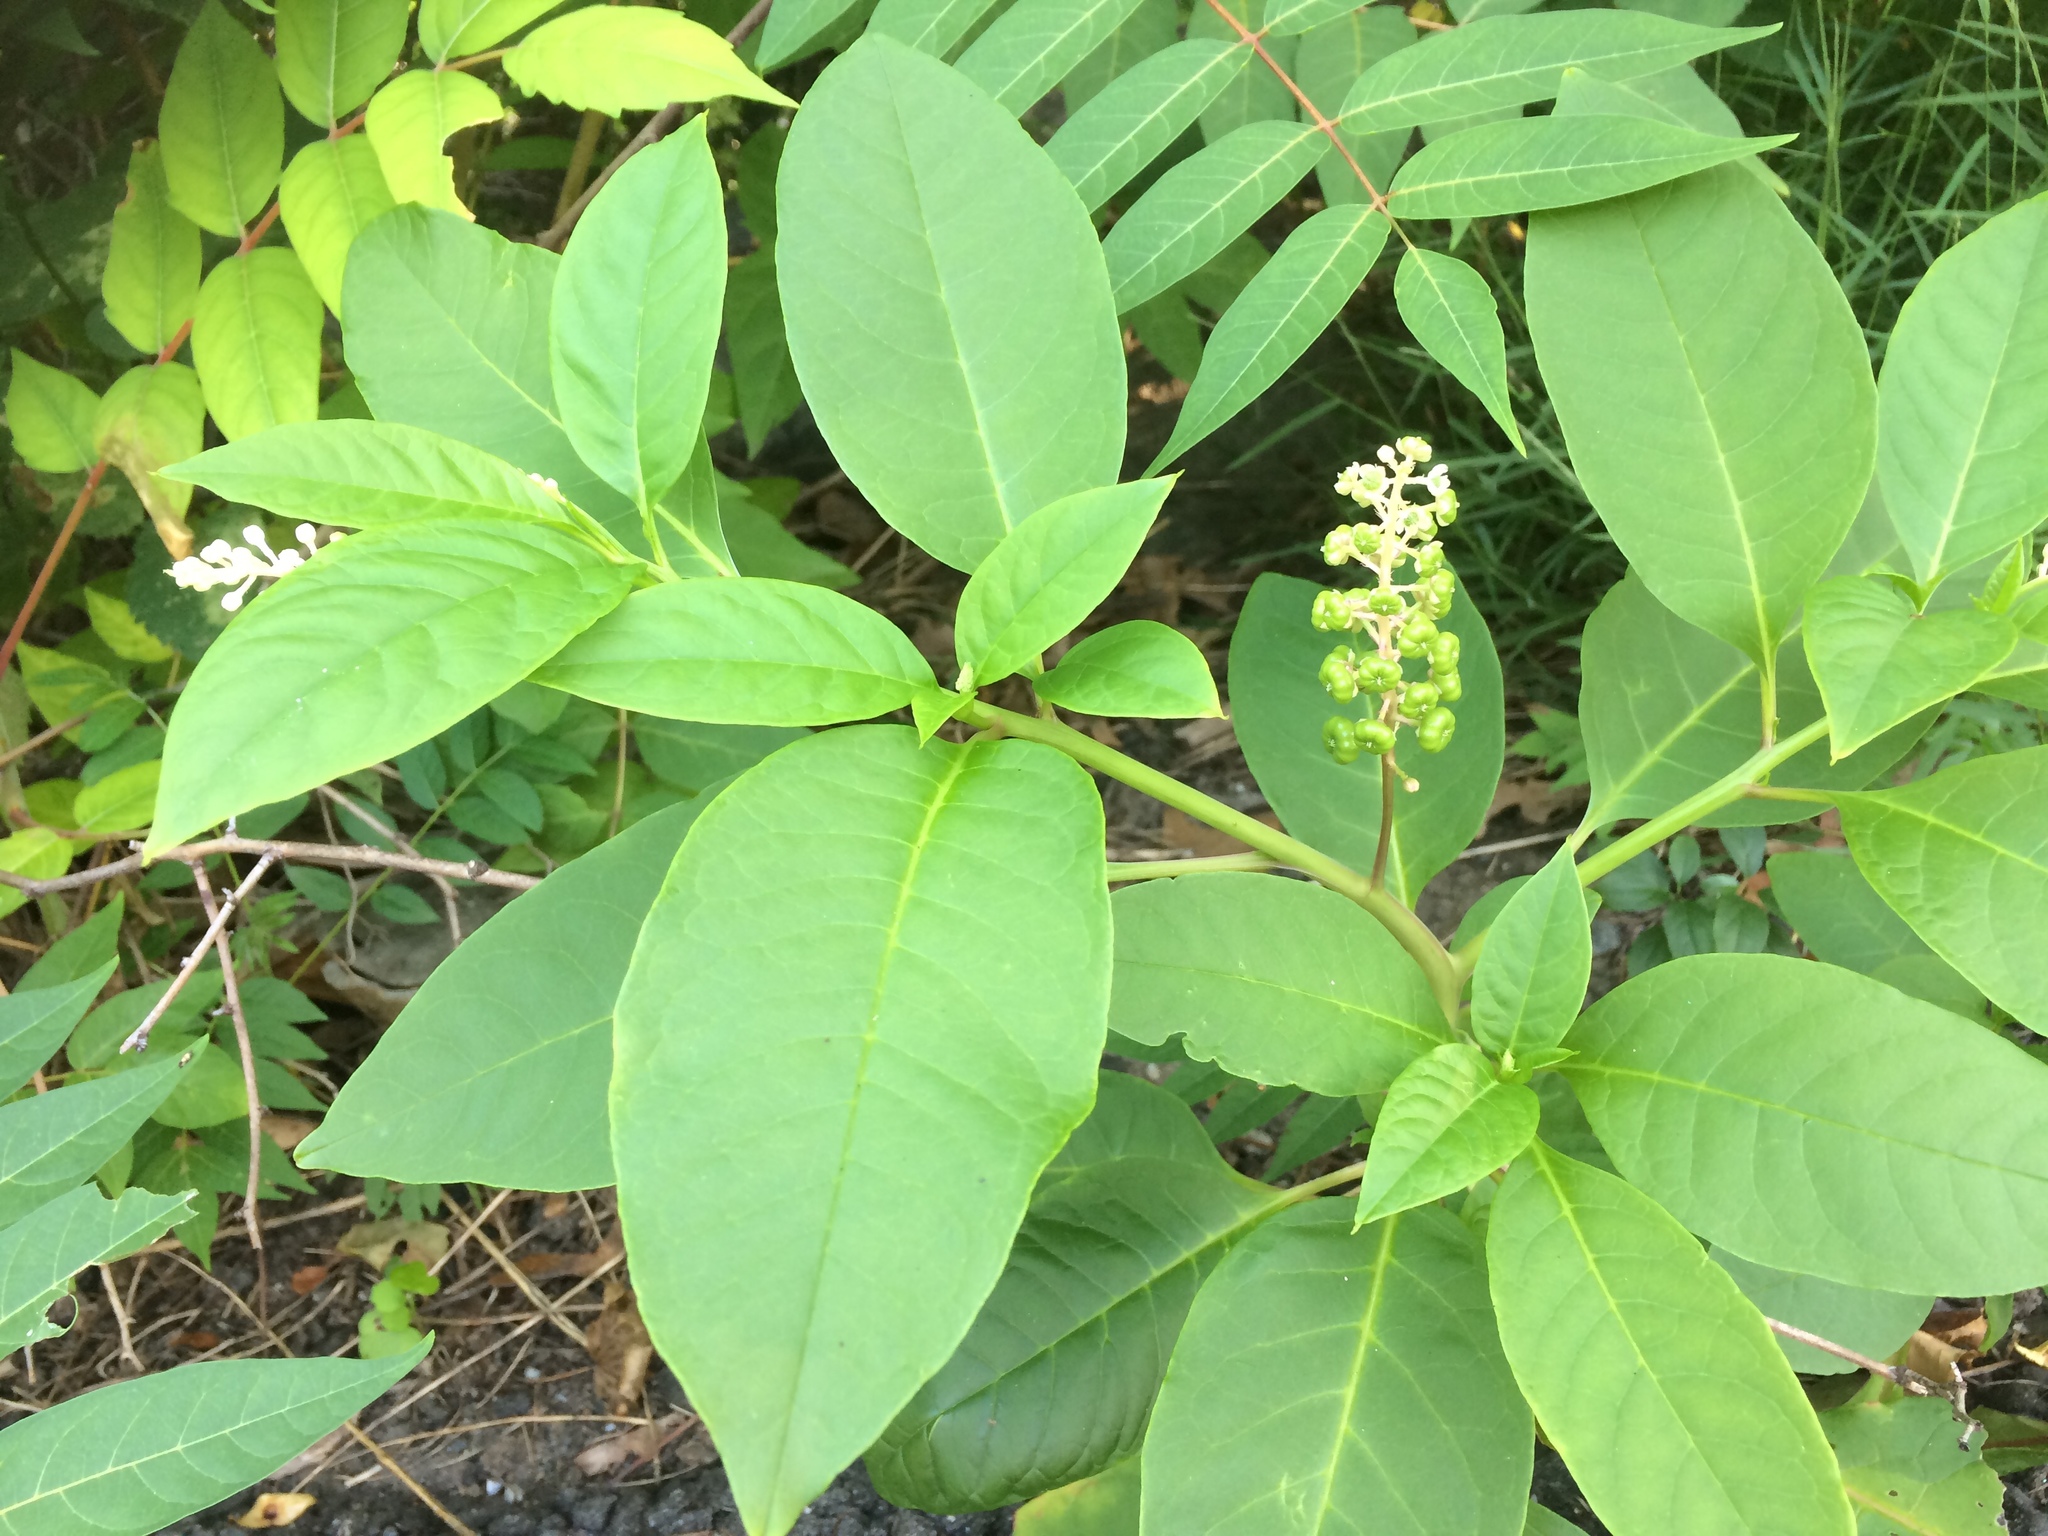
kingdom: Plantae
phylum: Tracheophyta
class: Magnoliopsida
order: Caryophyllales
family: Phytolaccaceae
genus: Phytolacca
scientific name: Phytolacca americana
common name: American pokeweed
